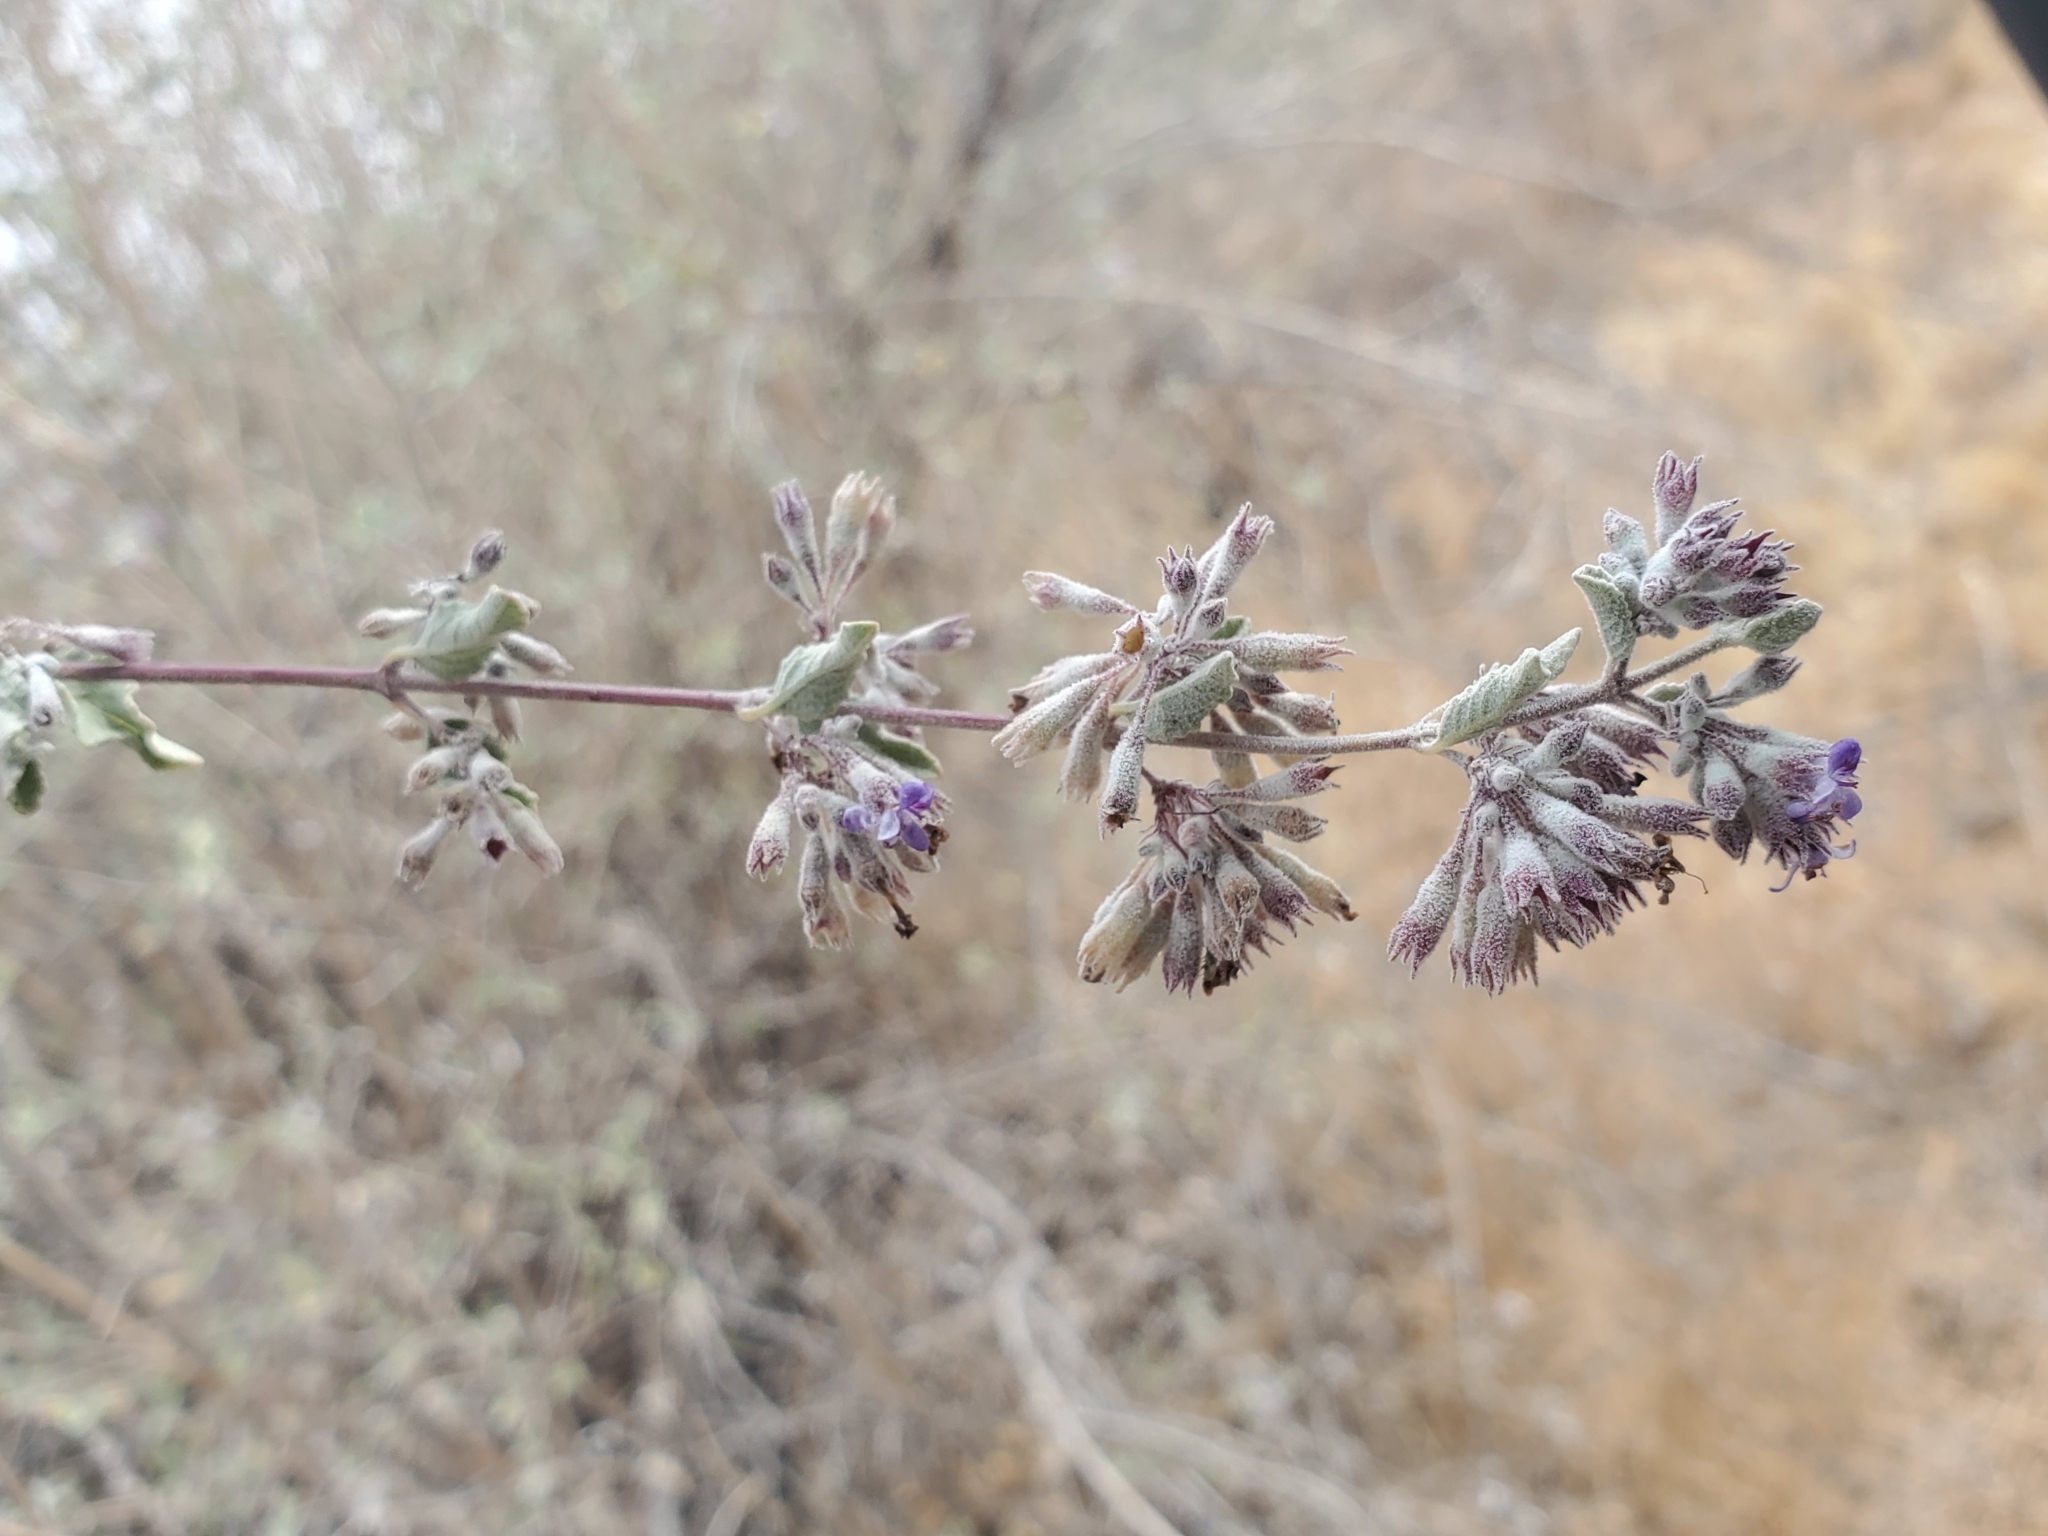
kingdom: Plantae
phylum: Tracheophyta
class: Magnoliopsida
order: Lamiales
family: Lamiaceae
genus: Condea
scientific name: Condea emoryi
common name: Chia
